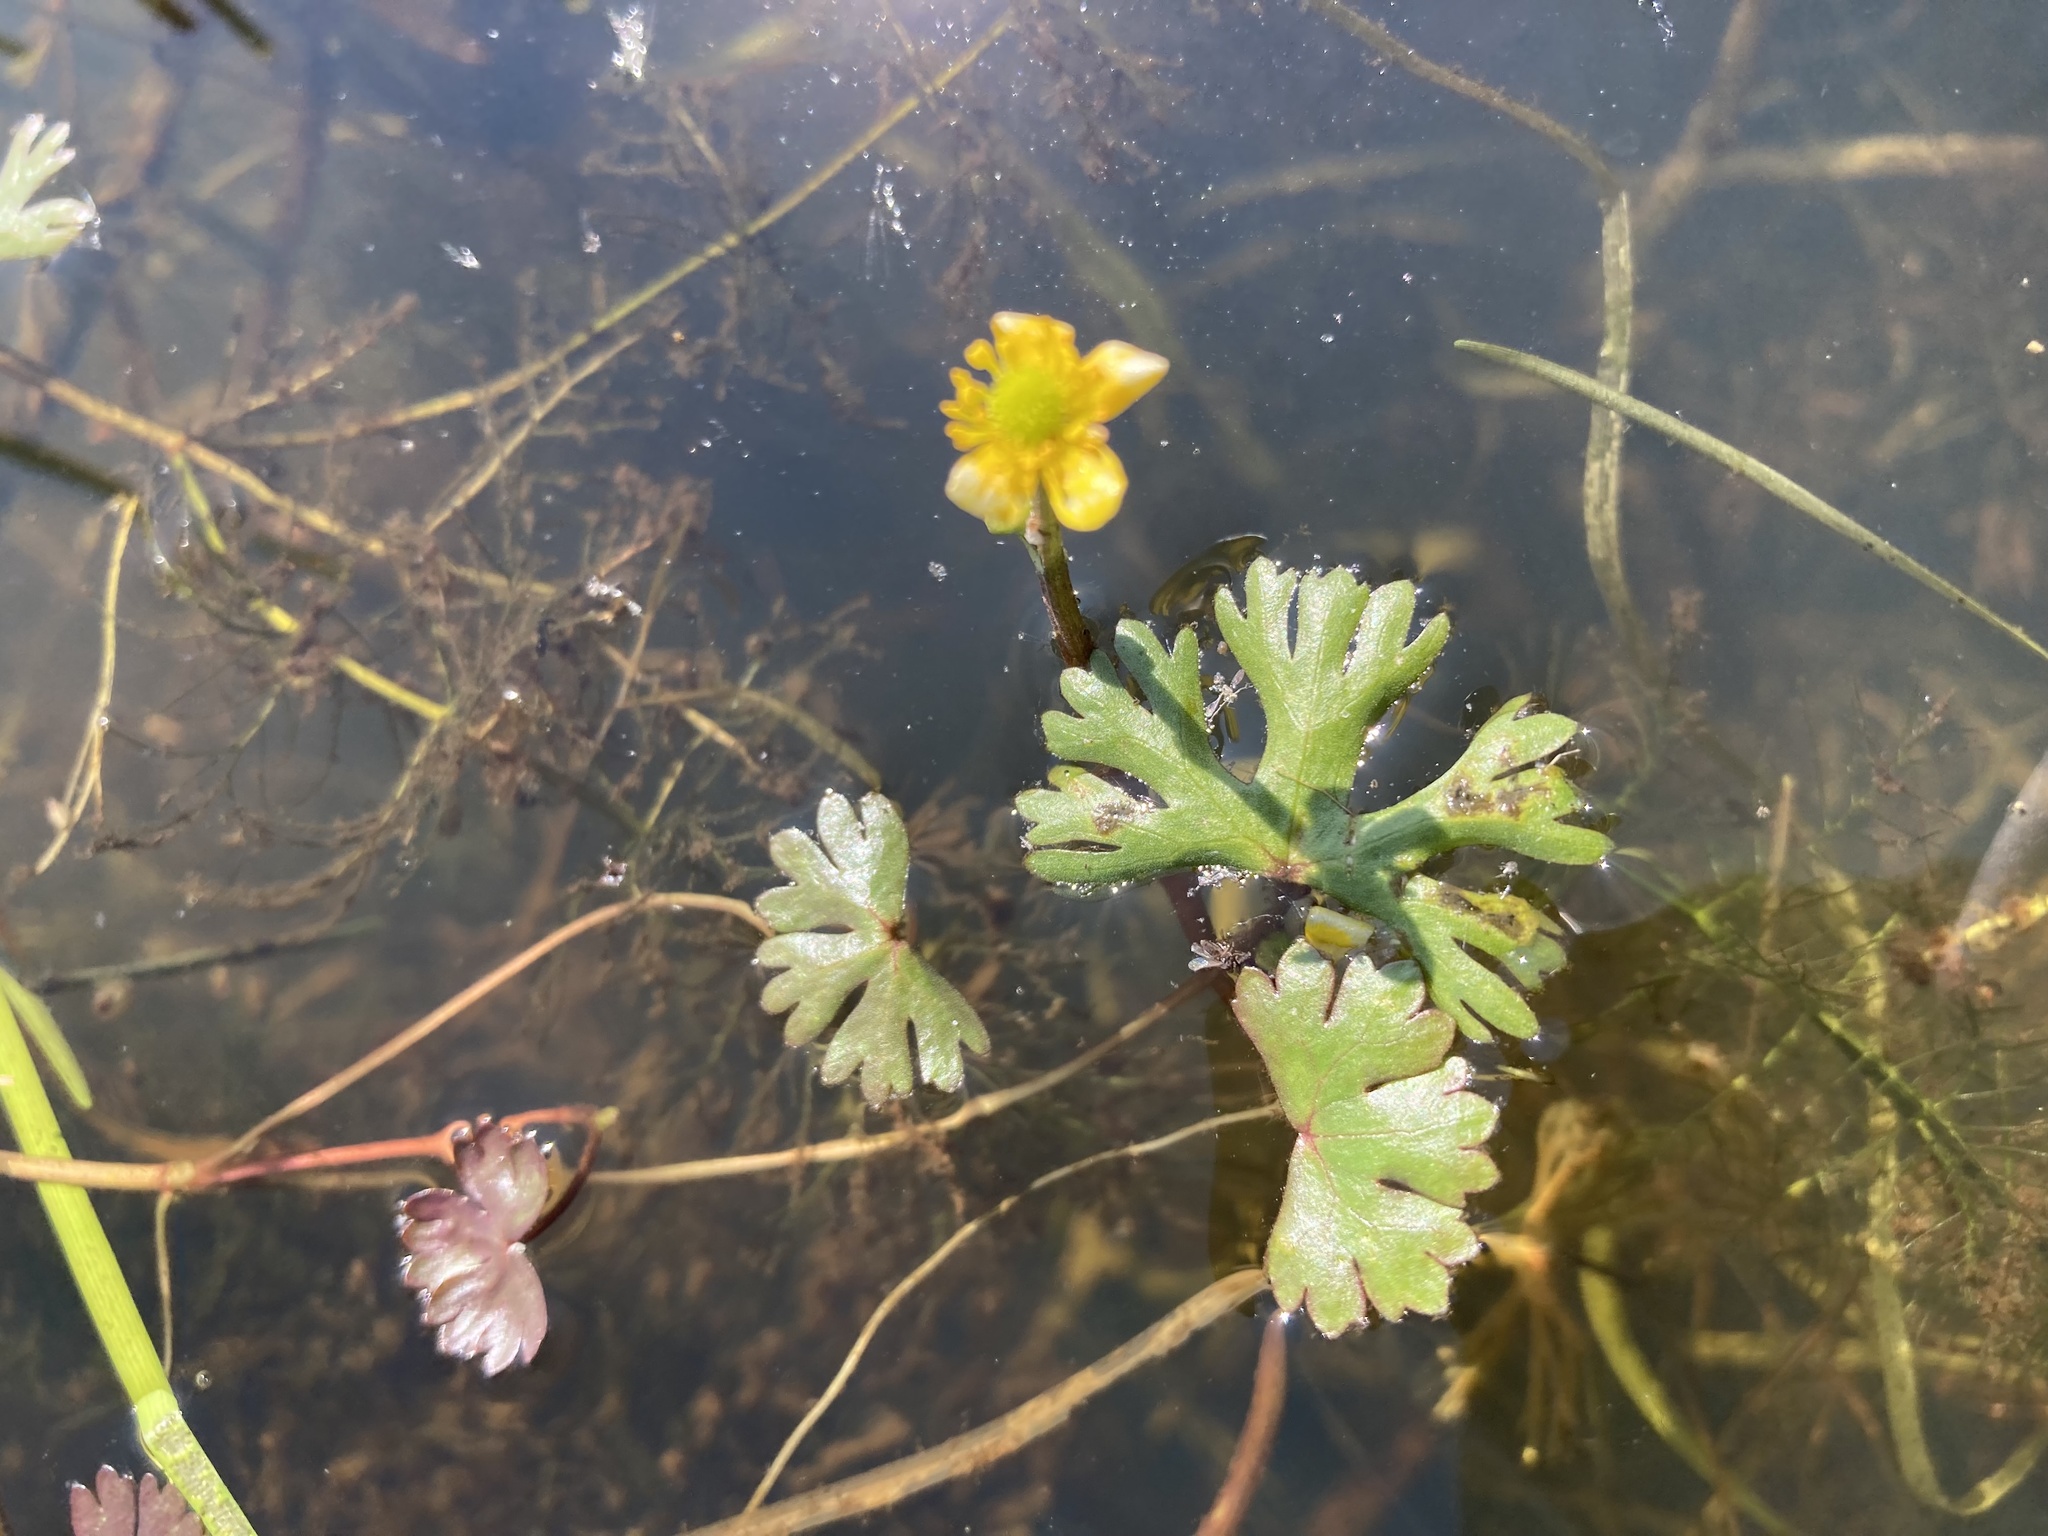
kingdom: Plantae
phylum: Tracheophyta
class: Magnoliopsida
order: Ranunculales
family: Ranunculaceae
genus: Ranunculus
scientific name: Ranunculus gmelinii
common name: Gmelin's buttercup
